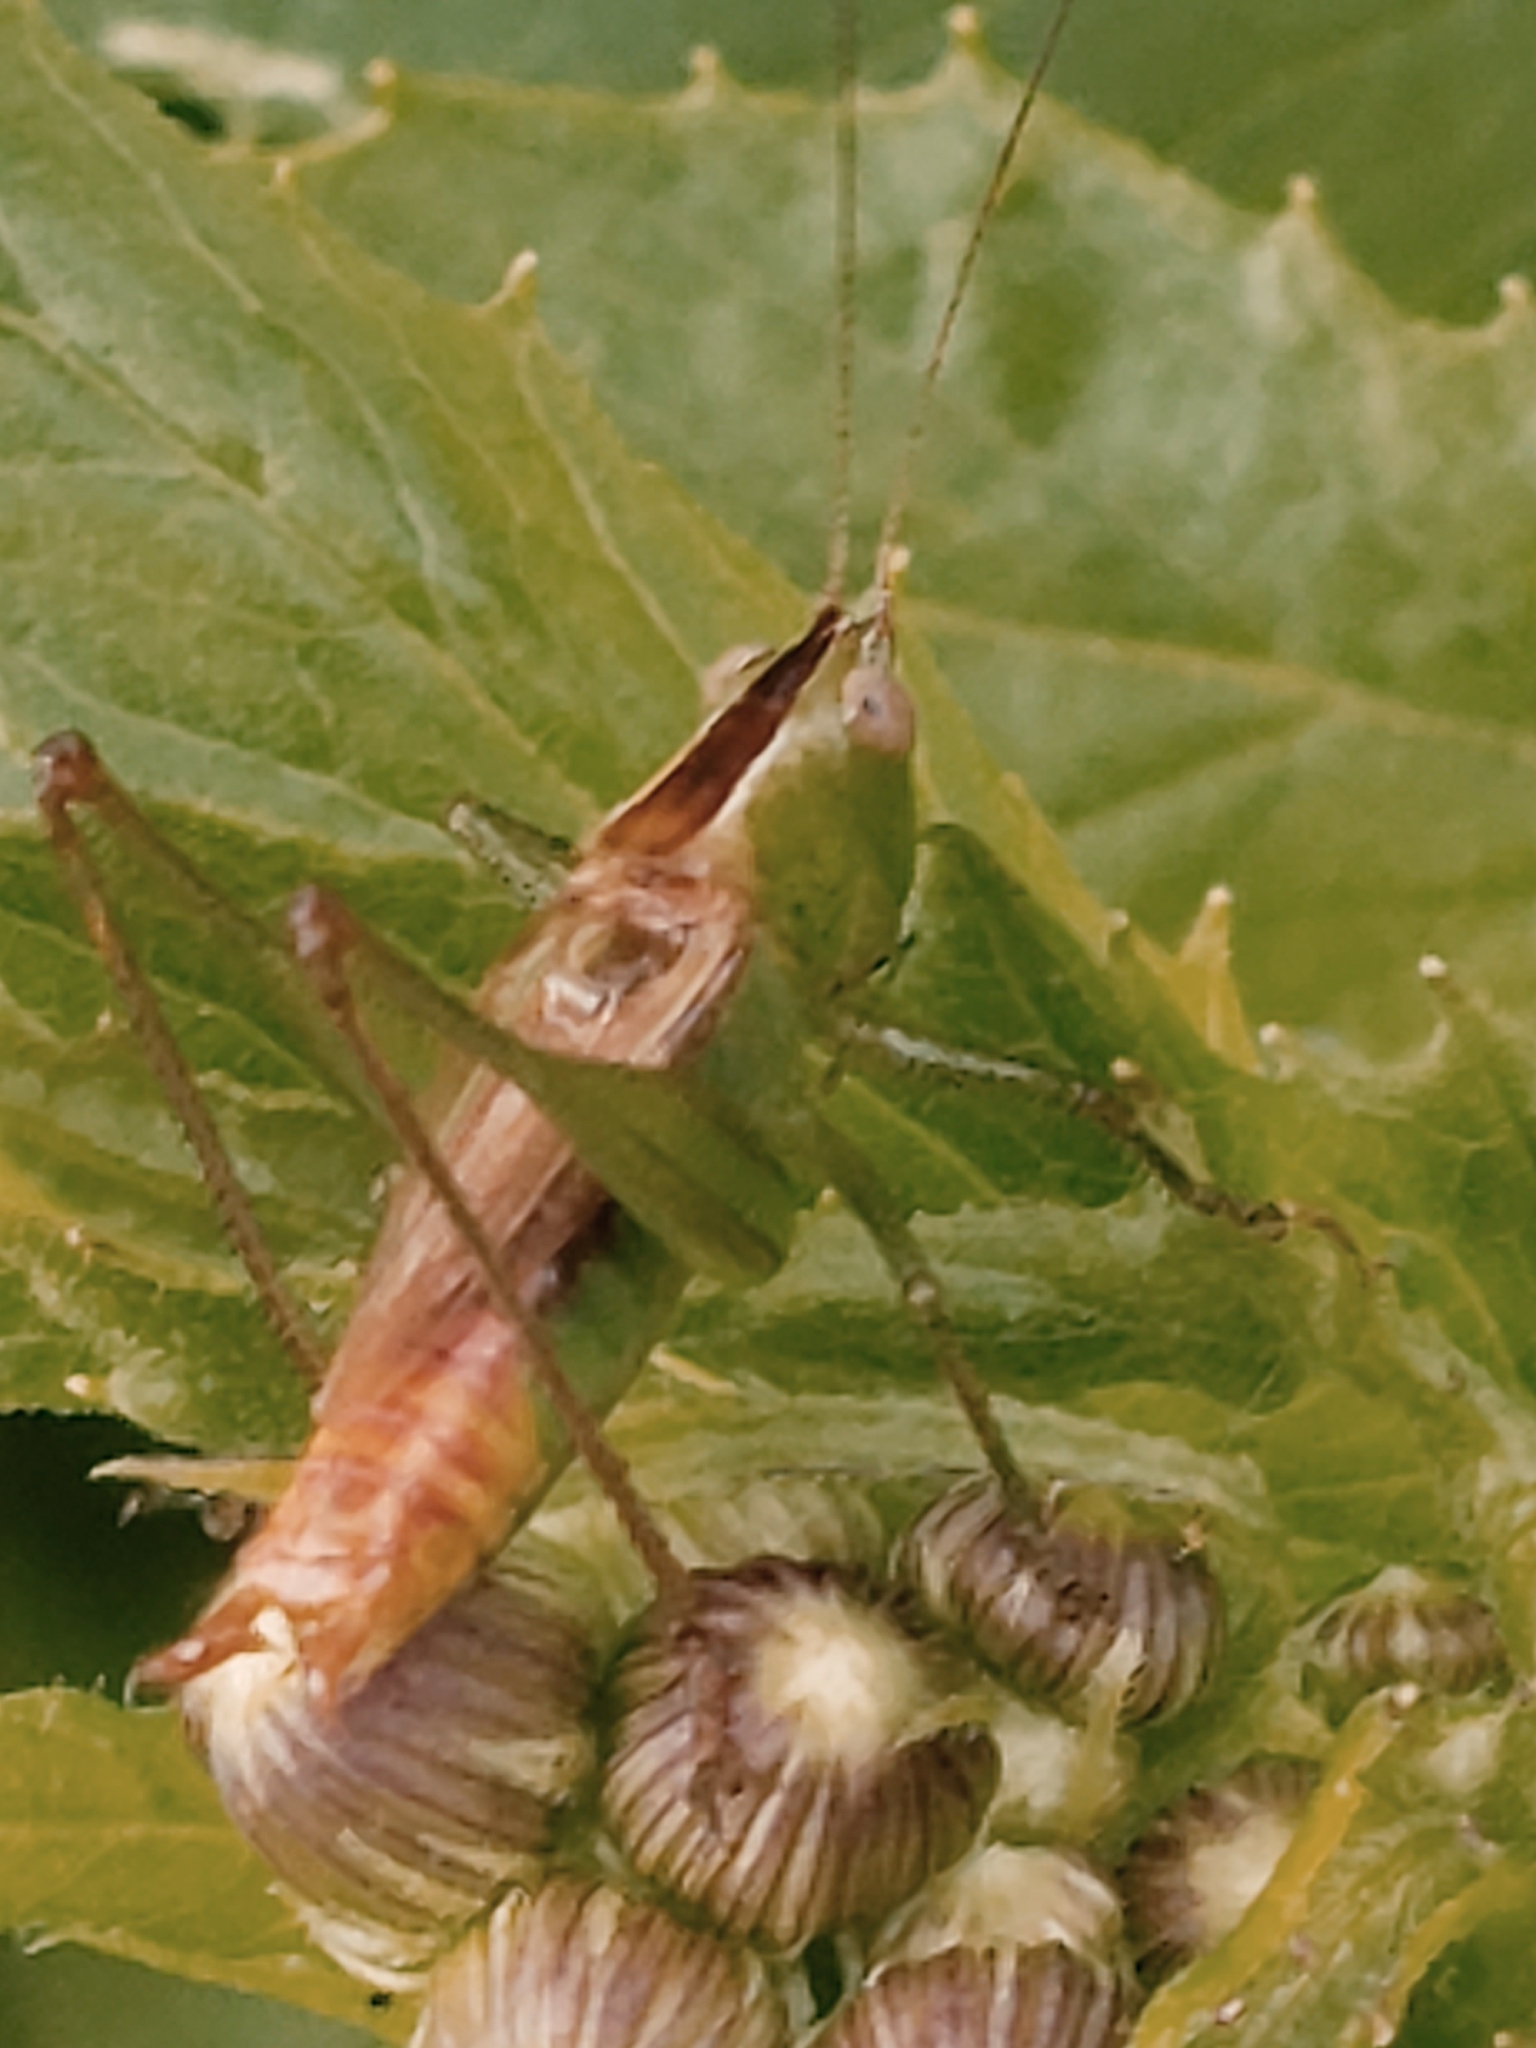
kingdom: Animalia
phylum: Arthropoda
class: Insecta
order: Orthoptera
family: Tettigoniidae
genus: Conocephalus
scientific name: Conocephalus brevipennis
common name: Short-winged meadow katydid
